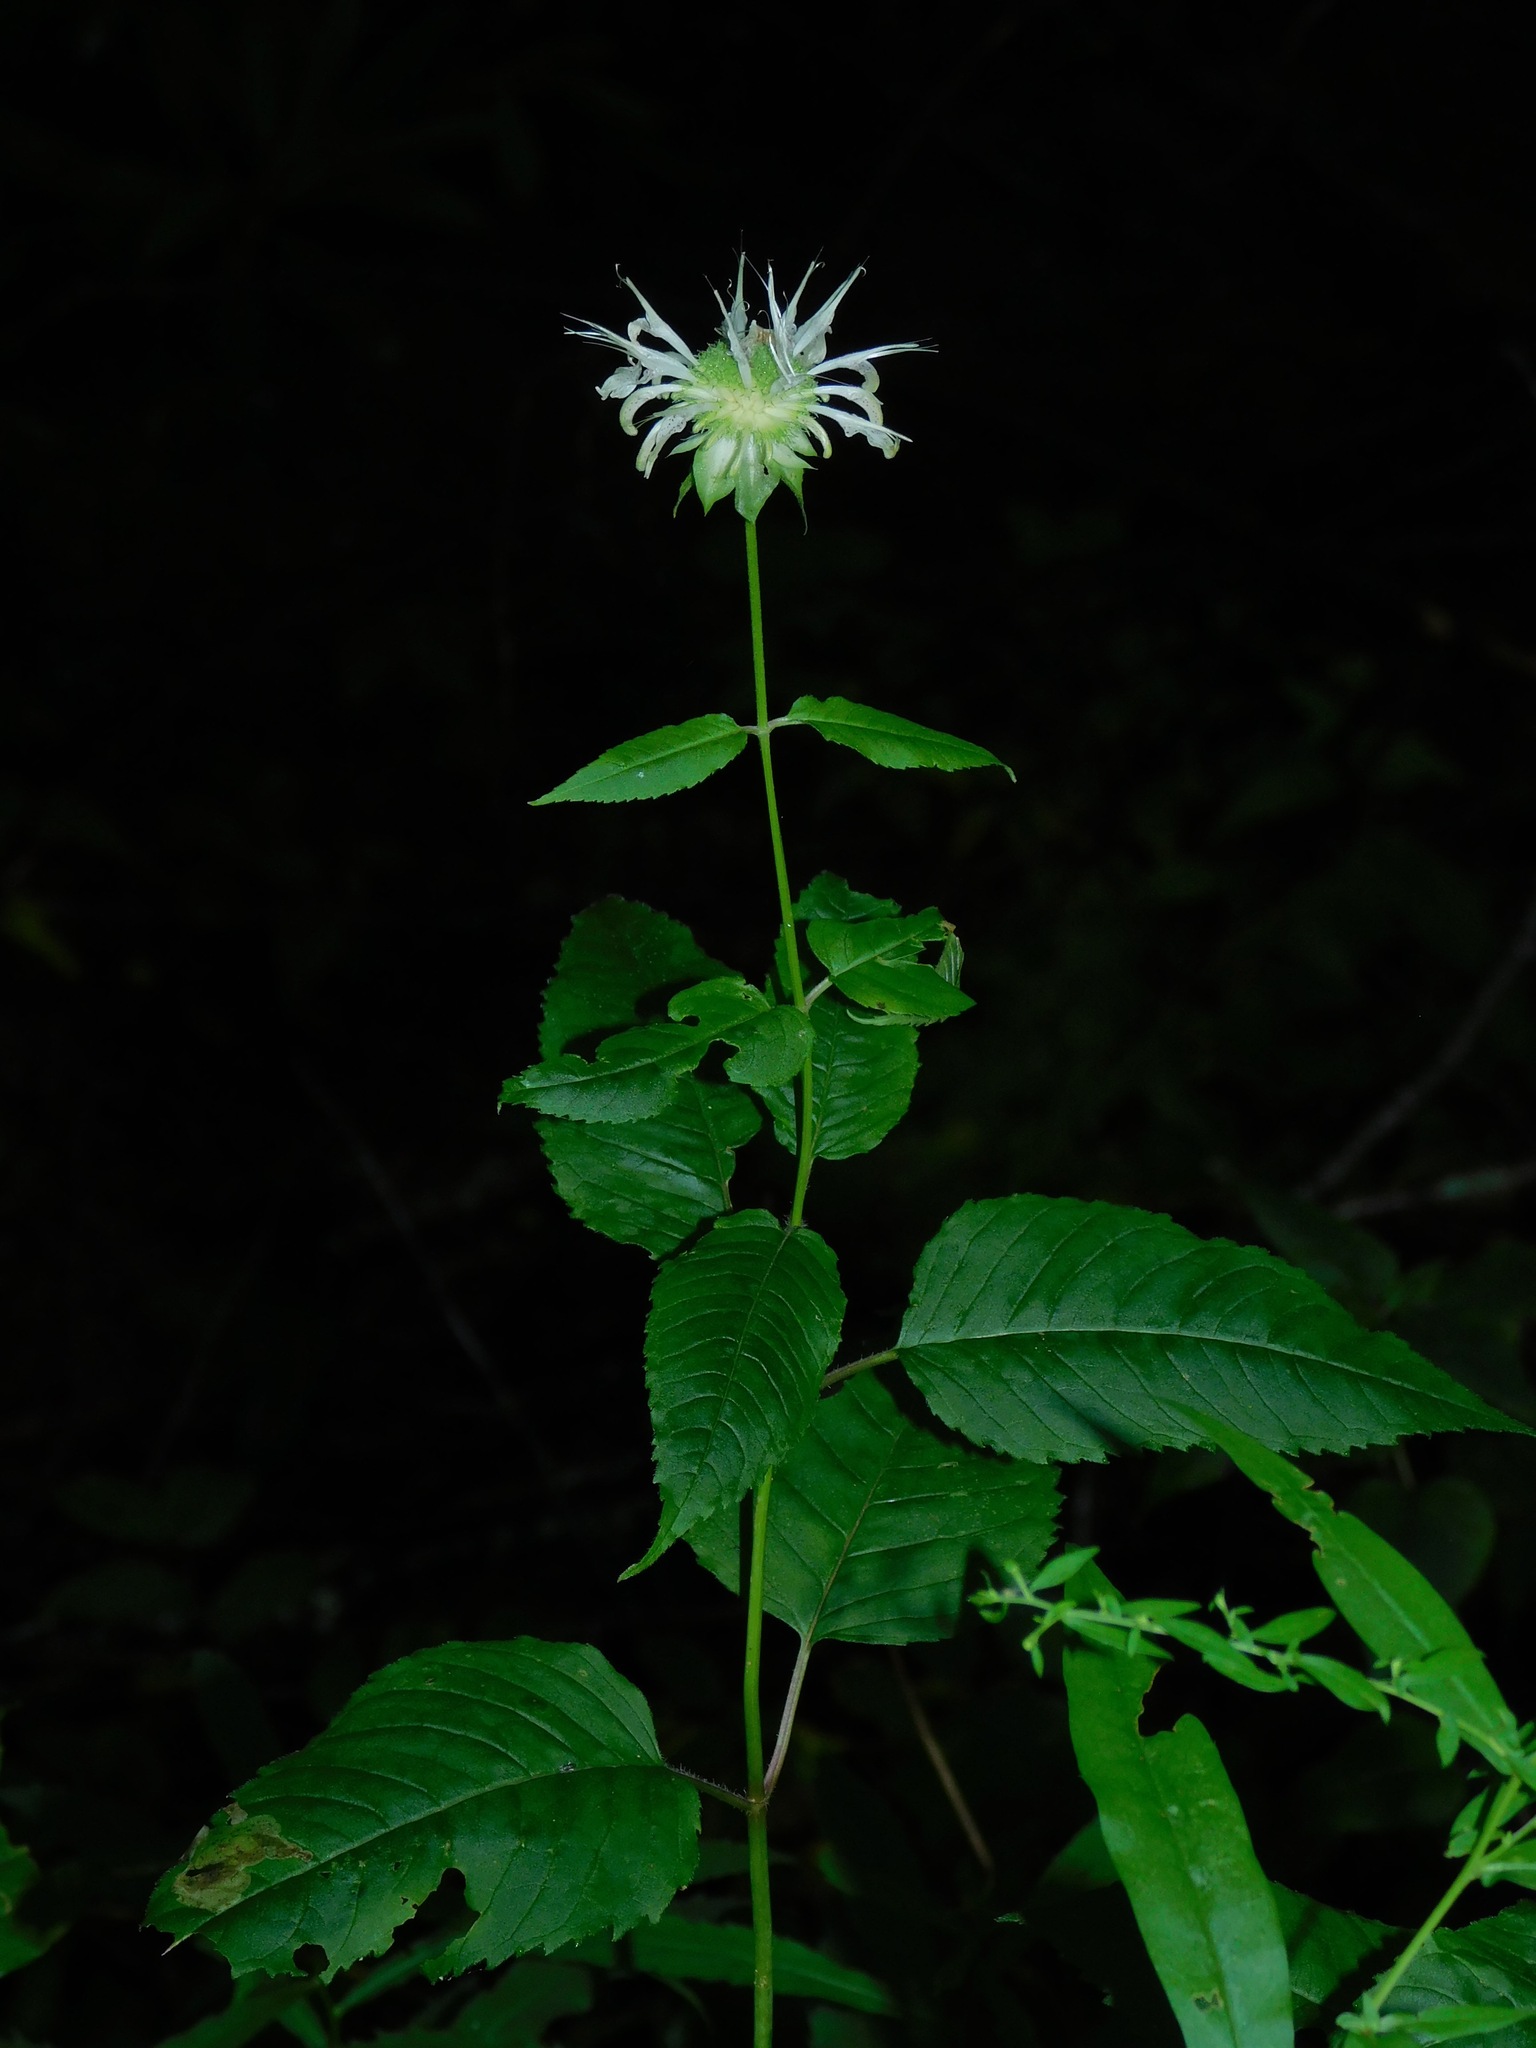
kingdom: Plantae
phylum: Tracheophyta
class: Magnoliopsida
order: Lamiales
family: Lamiaceae
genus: Monarda
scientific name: Monarda clinopodia
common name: Basil beebalm
